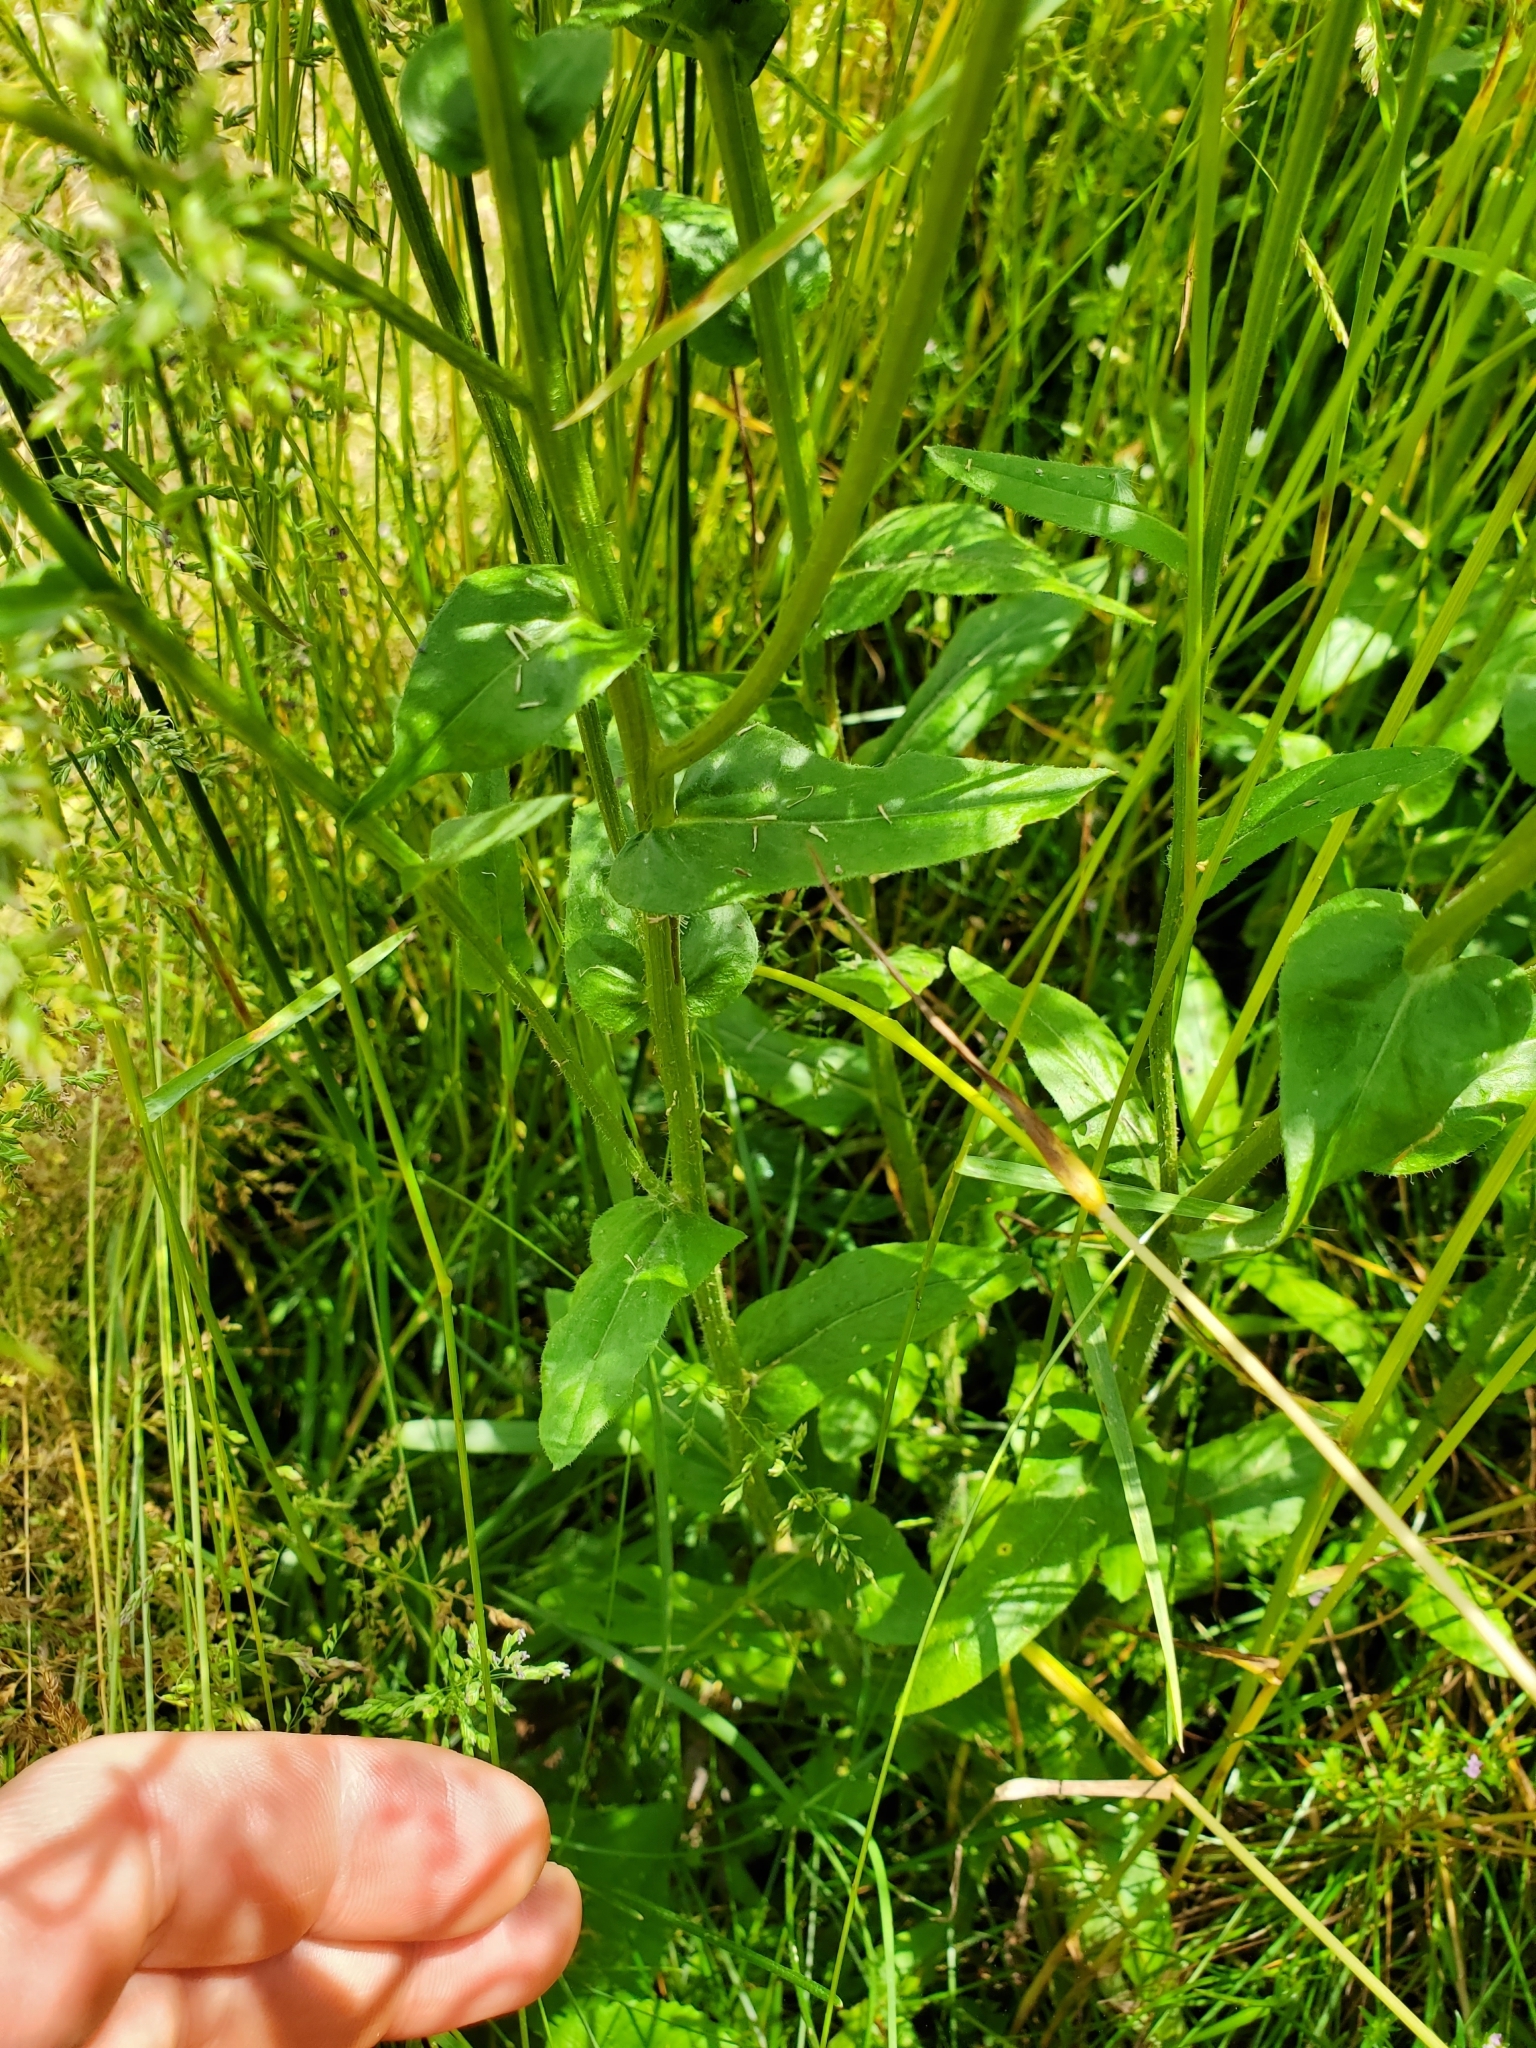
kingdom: Plantae
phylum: Tracheophyta
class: Magnoliopsida
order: Asterales
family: Asteraceae
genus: Erigeron
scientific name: Erigeron philadelphicus
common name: Robin's-plantain
